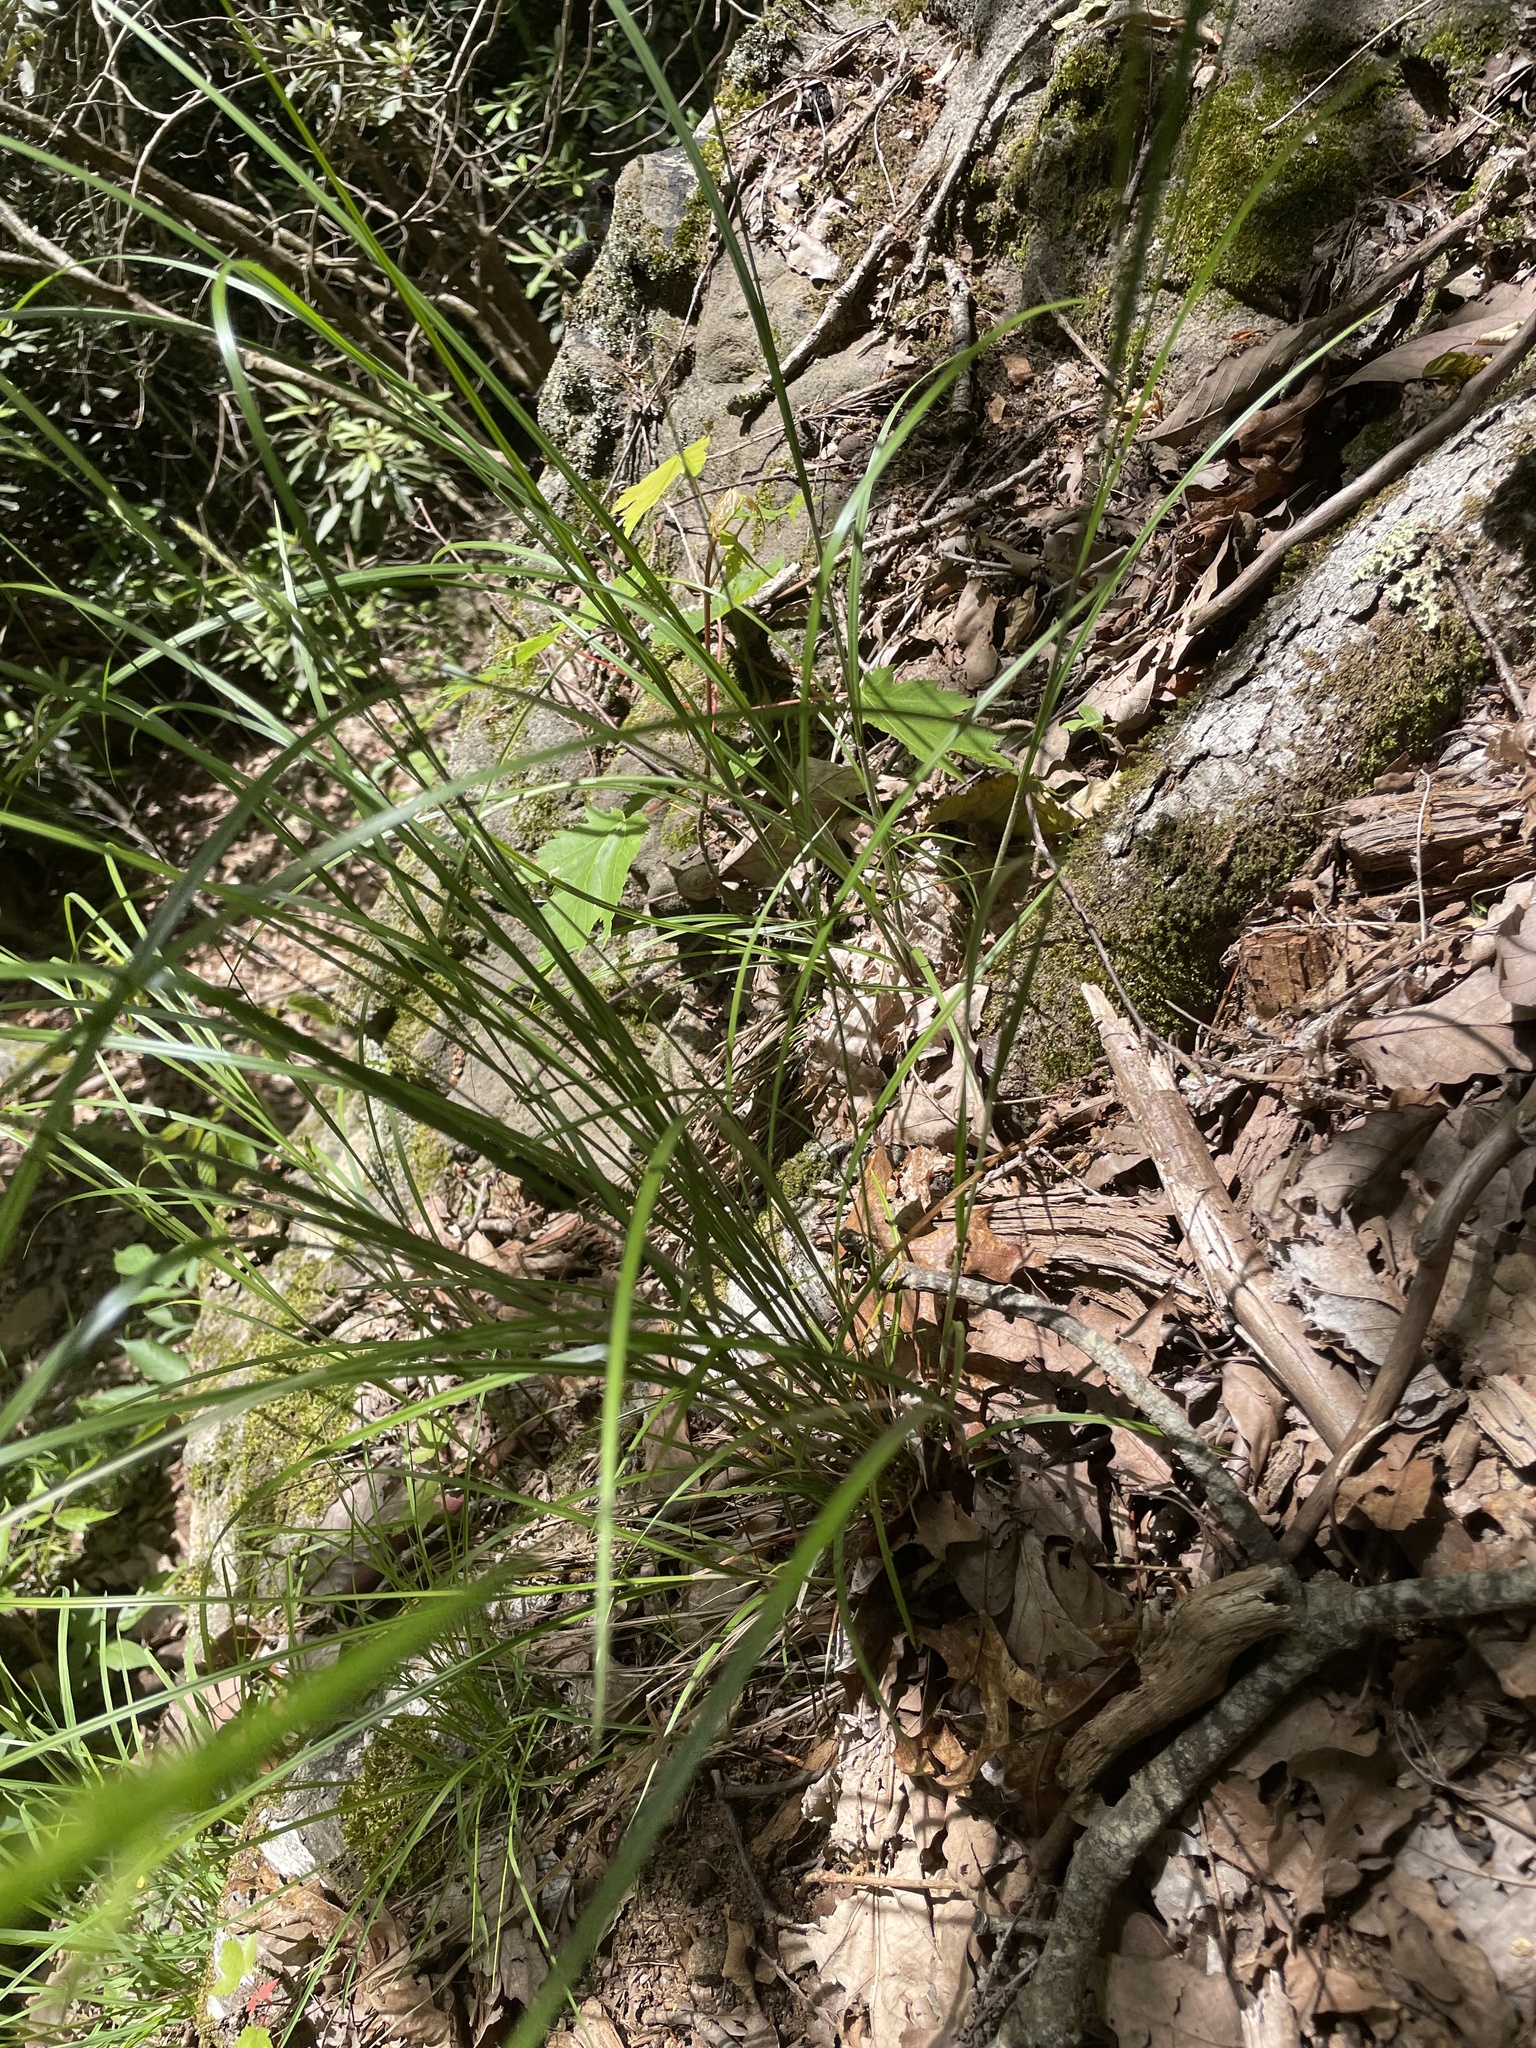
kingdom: Plantae
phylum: Tracheophyta
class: Liliopsida
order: Poales
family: Cyperaceae
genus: Carex
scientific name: Carex oxylepis
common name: Sharpscale sedge
